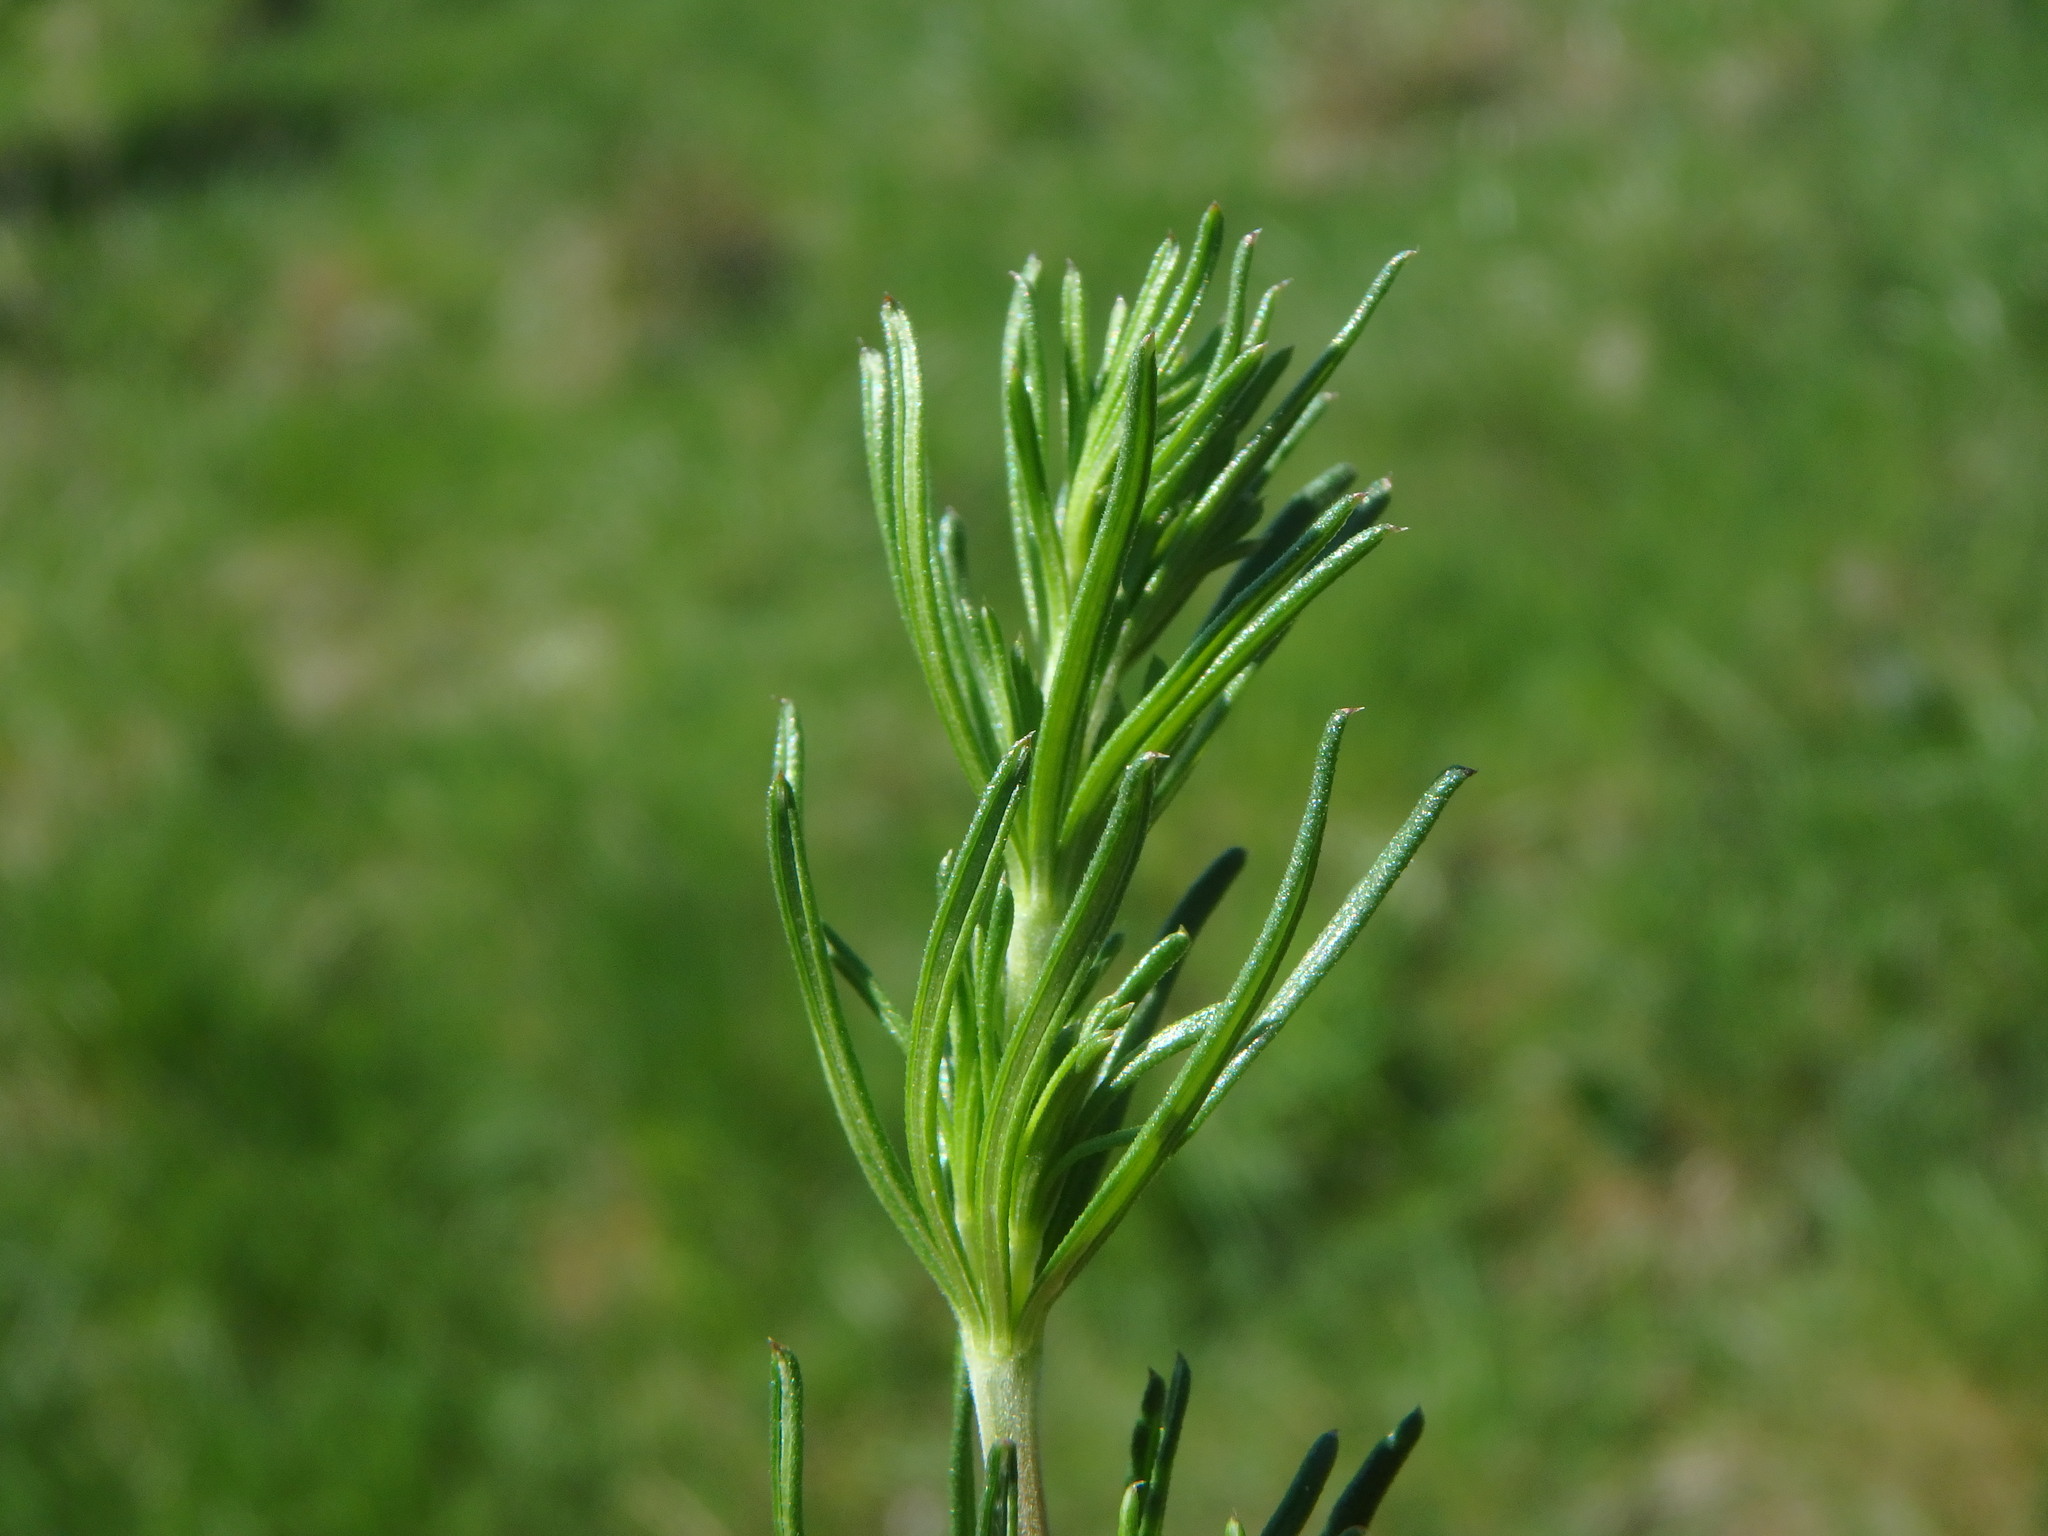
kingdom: Plantae
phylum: Tracheophyta
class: Magnoliopsida
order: Gentianales
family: Rubiaceae
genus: Galium
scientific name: Galium verum
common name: Lady's bedstraw
